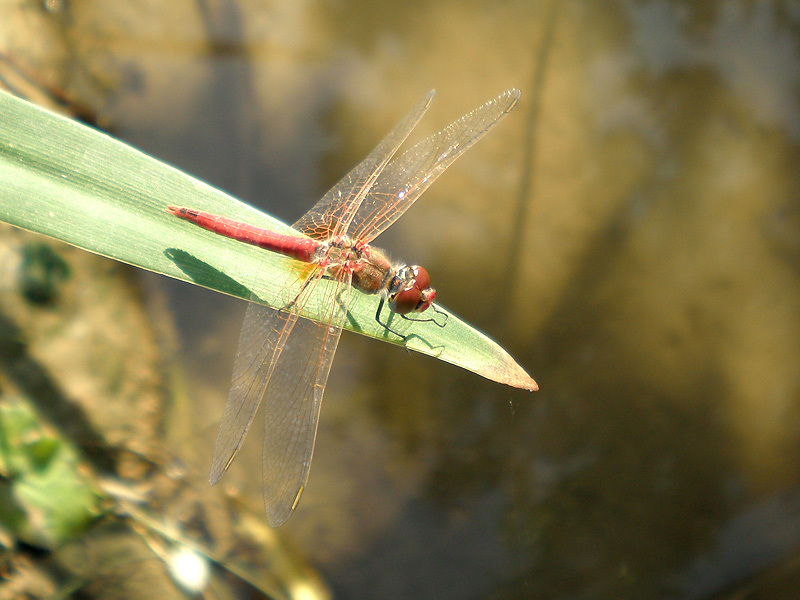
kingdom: Animalia
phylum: Arthropoda
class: Insecta
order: Odonata
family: Libellulidae
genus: Sympetrum
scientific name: Sympetrum fonscolombii
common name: Red-veined darter
